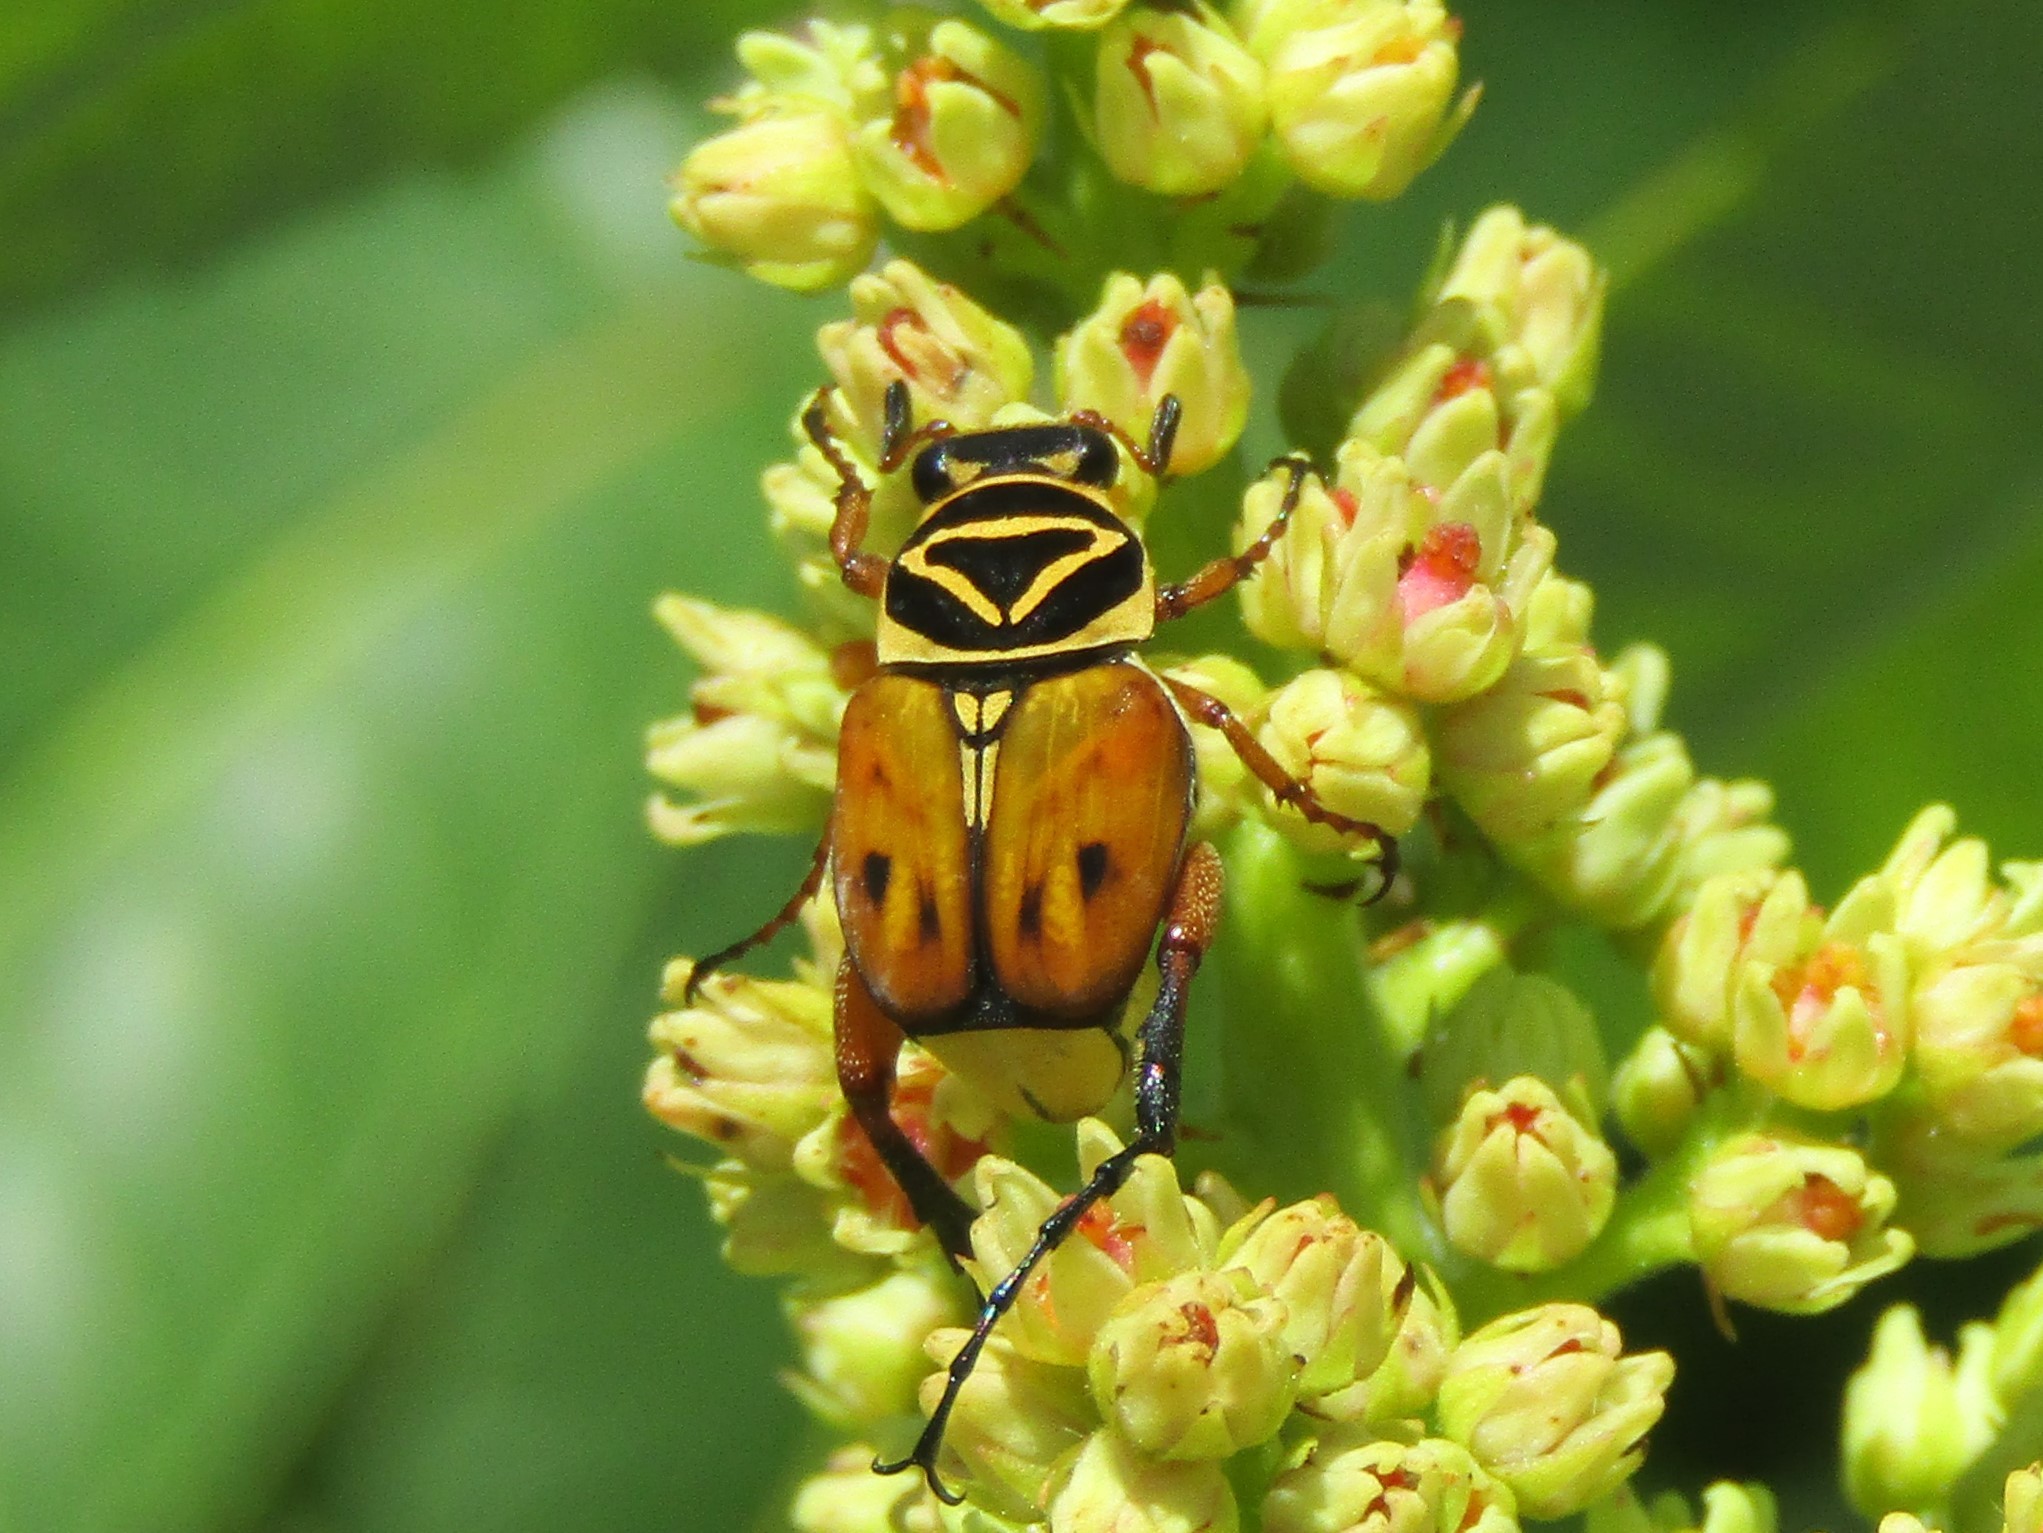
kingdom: Animalia
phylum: Arthropoda
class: Insecta
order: Coleoptera
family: Scarabaeidae
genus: Trigonopeltastes
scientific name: Trigonopeltastes delta
